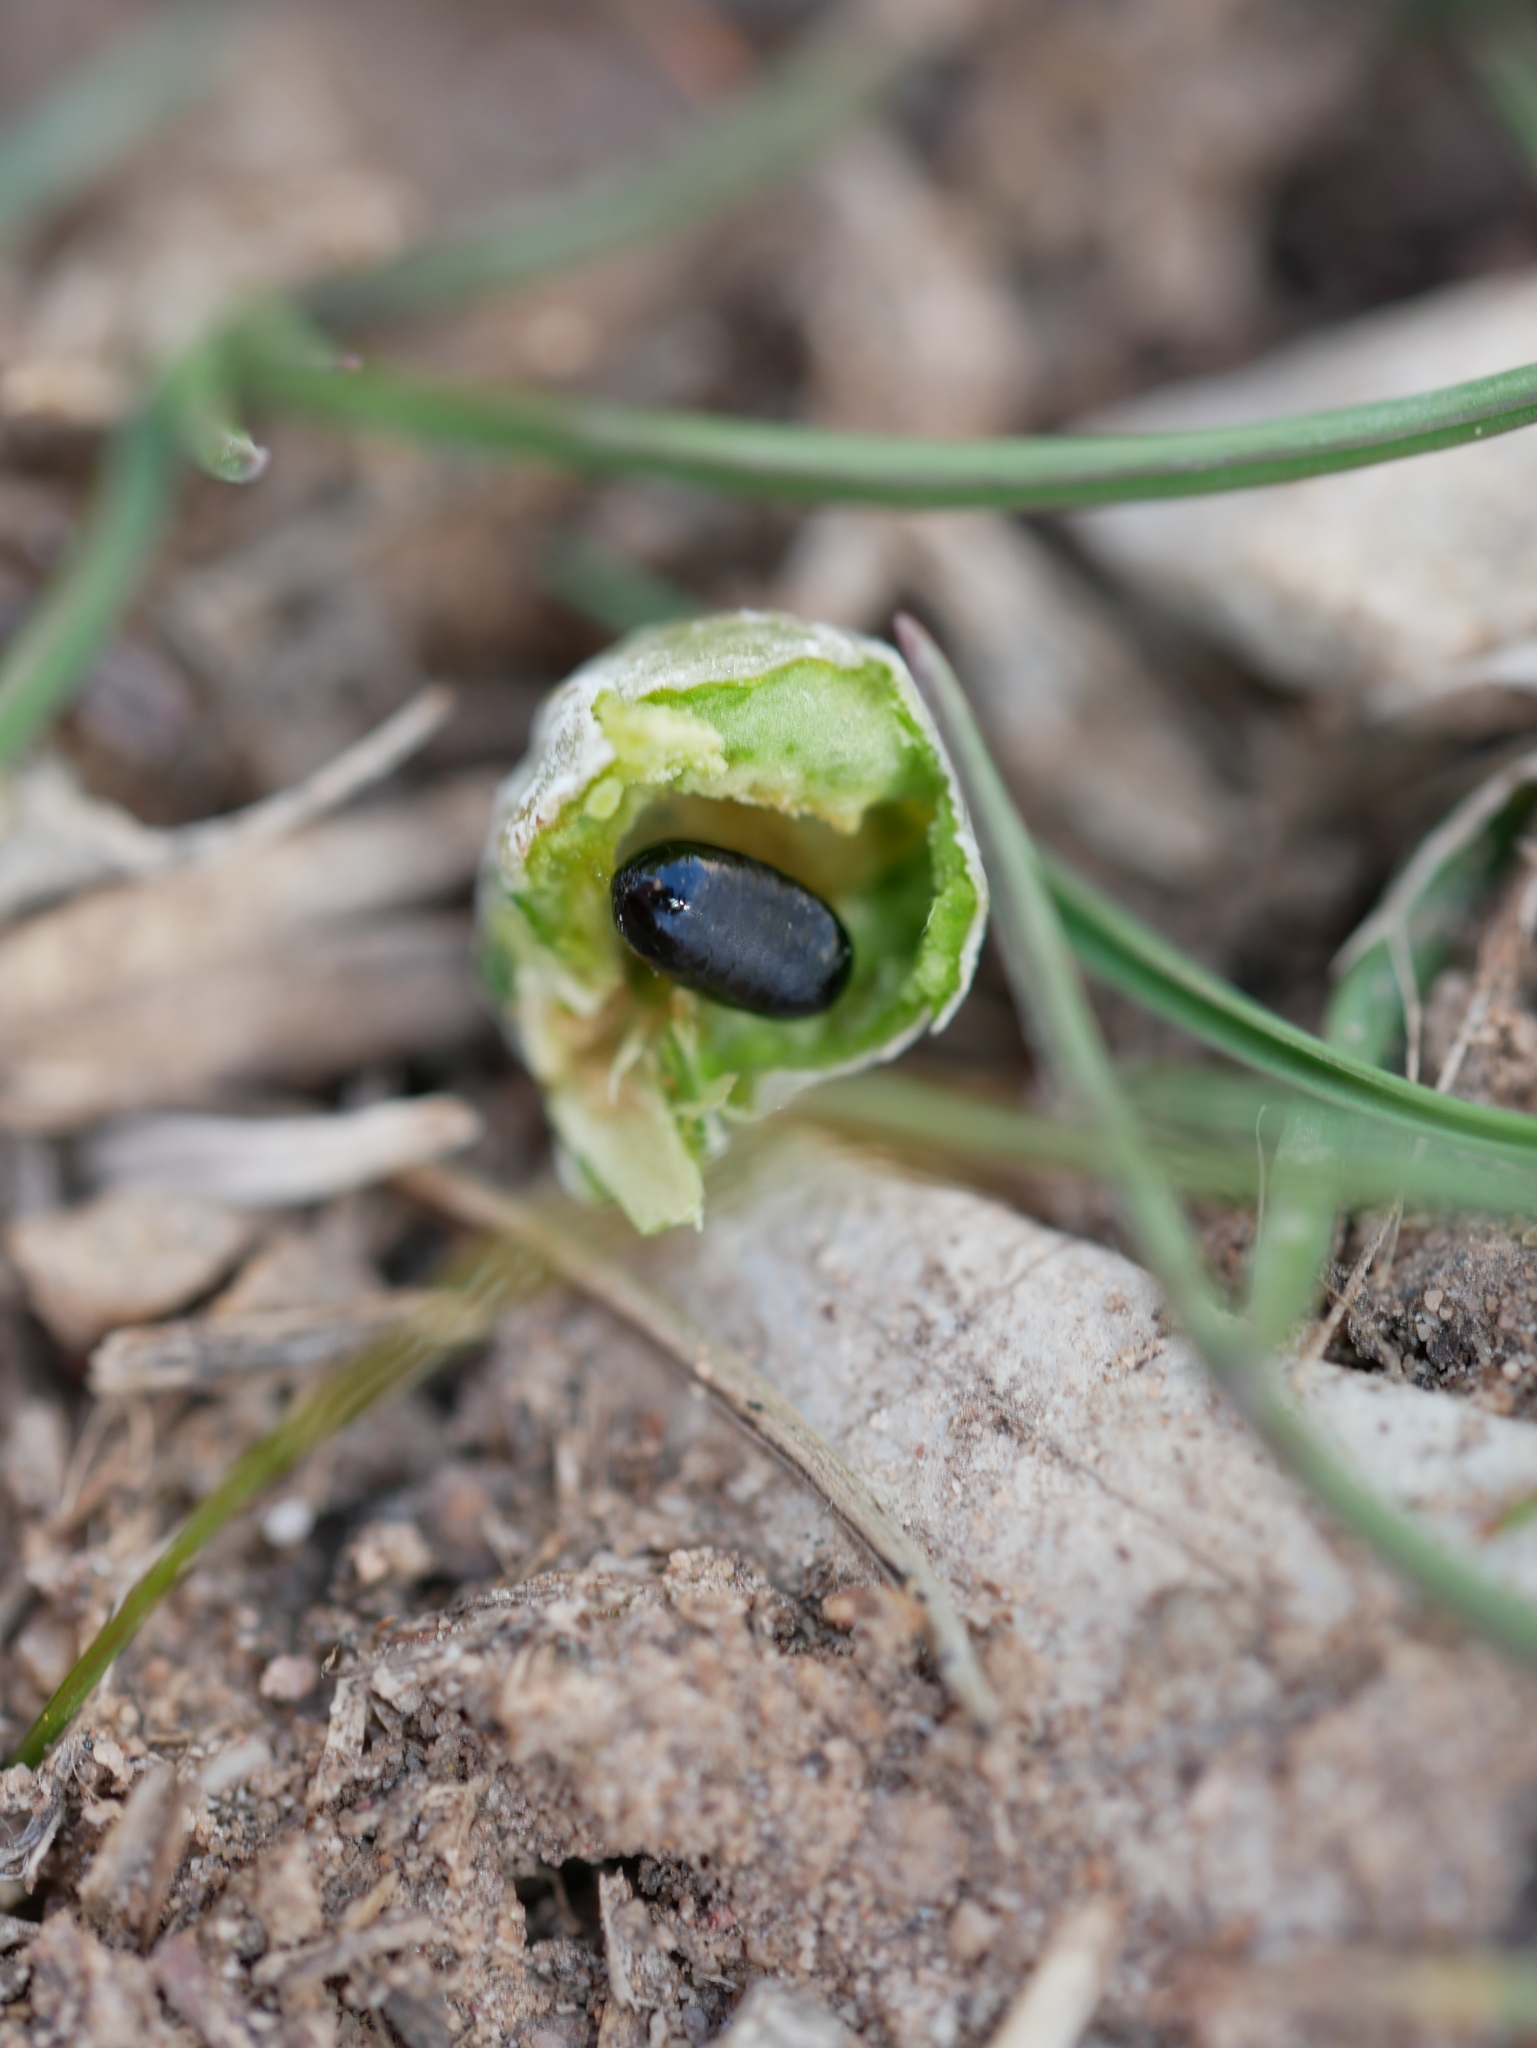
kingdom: Animalia
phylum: Arthropoda
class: Insecta
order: Diptera
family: Tephritidae
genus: Aciurina
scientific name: Aciurina trixa
